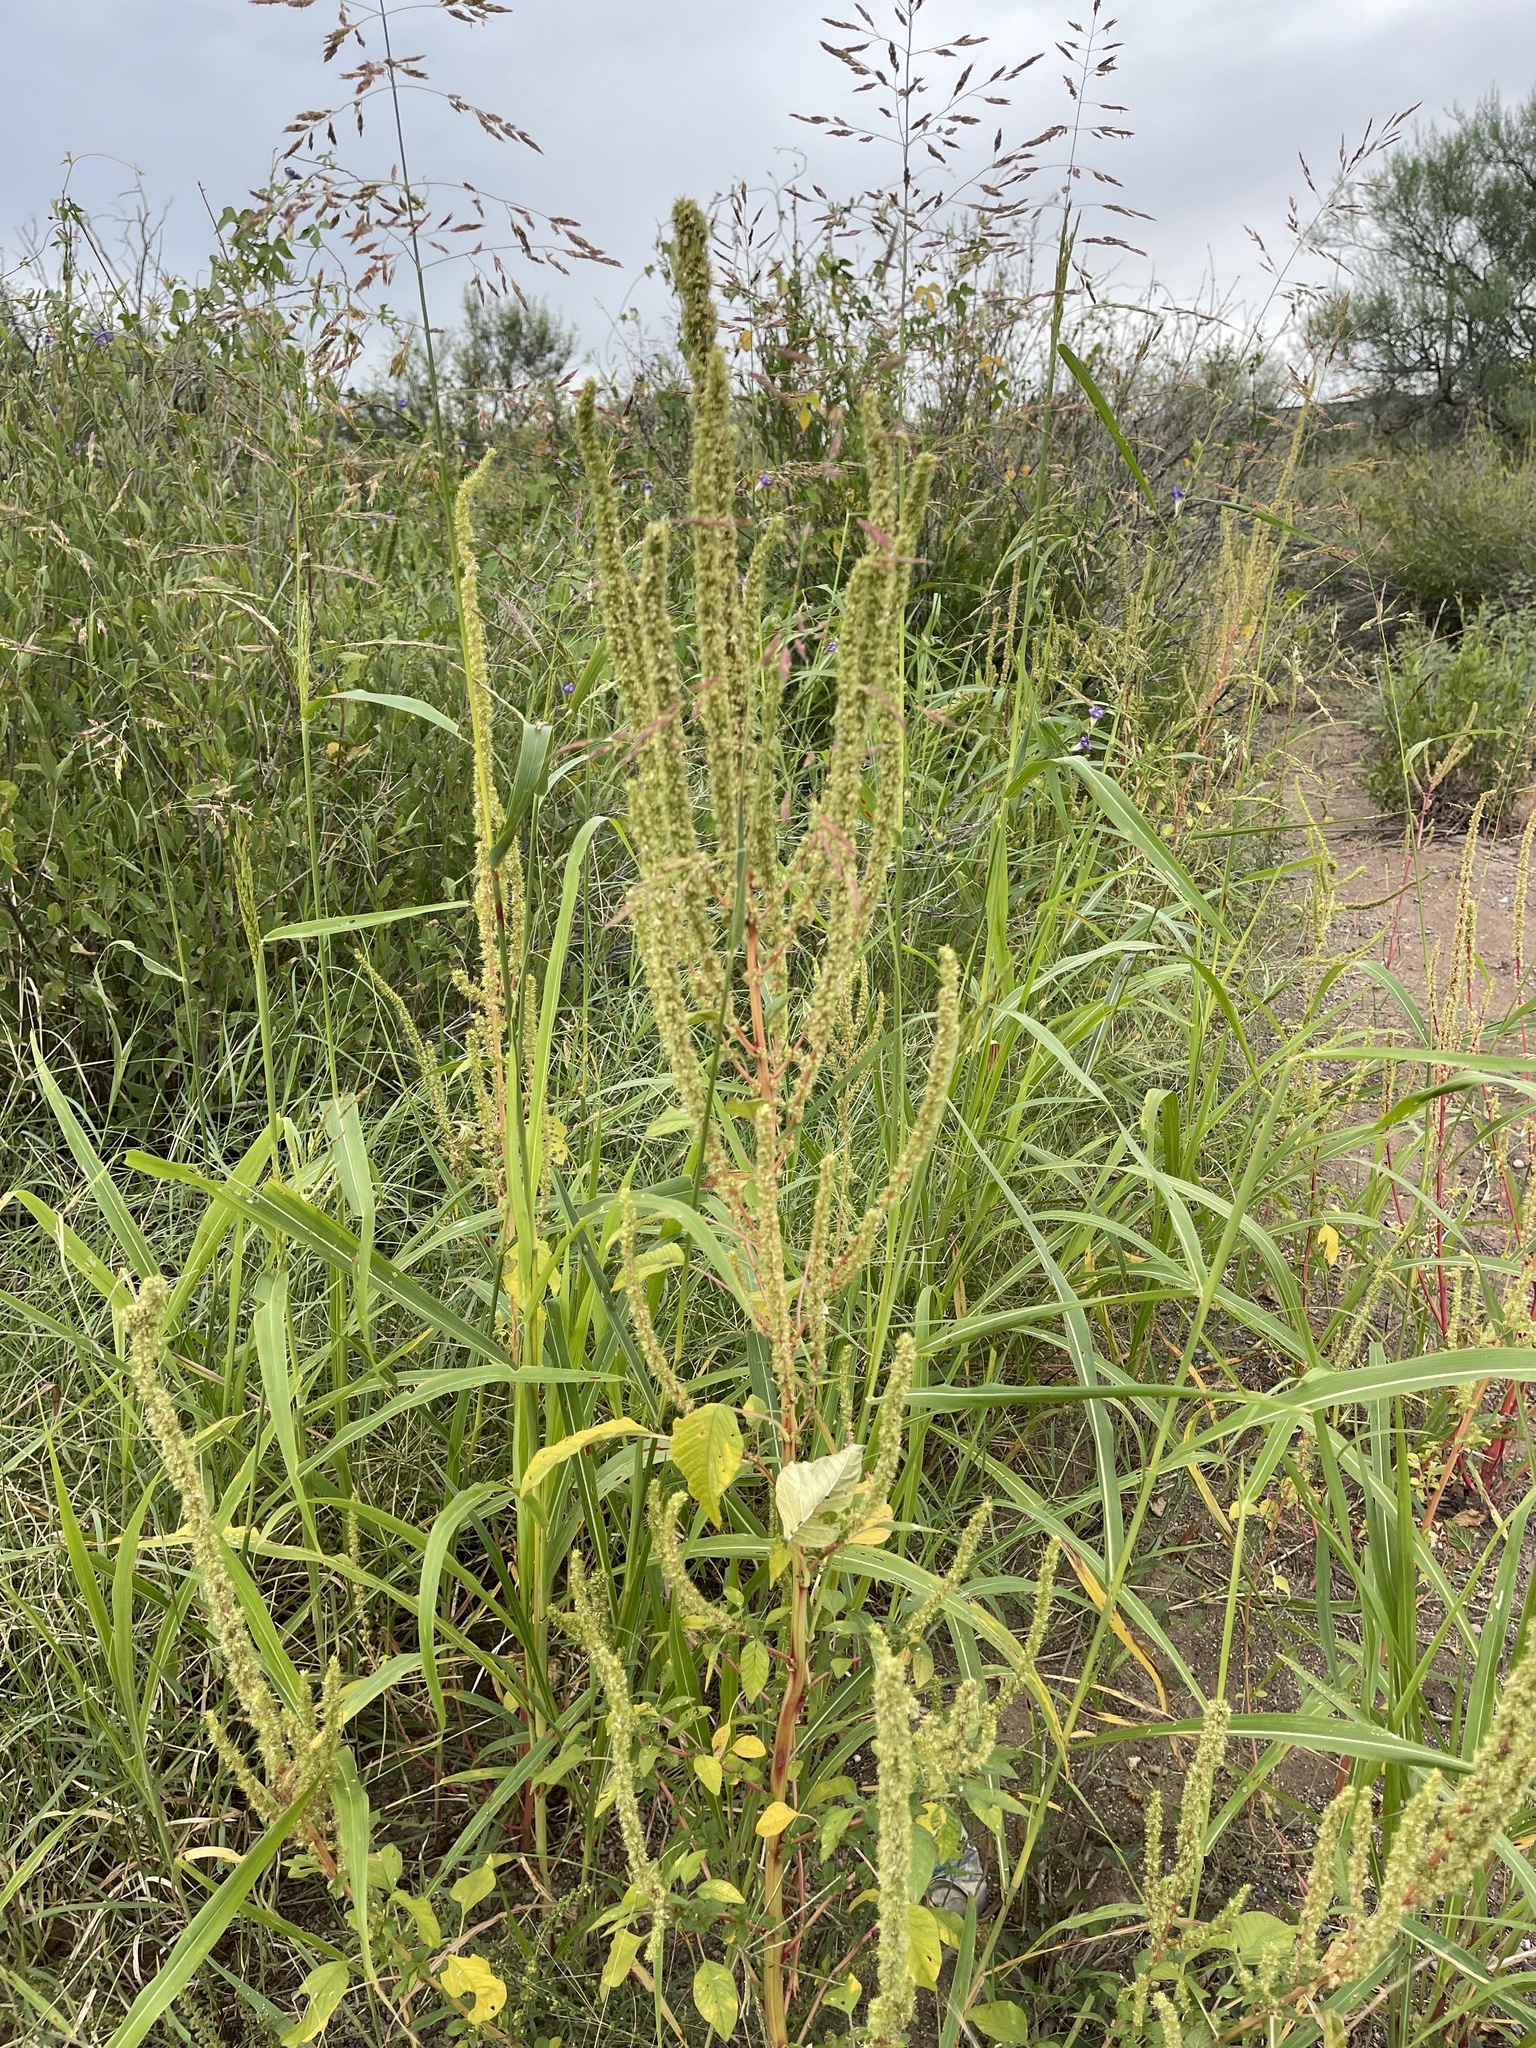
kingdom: Plantae
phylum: Tracheophyta
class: Magnoliopsida
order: Caryophyllales
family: Amaranthaceae
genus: Amaranthus
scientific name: Amaranthus palmeri
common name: Dioecious amaranth
